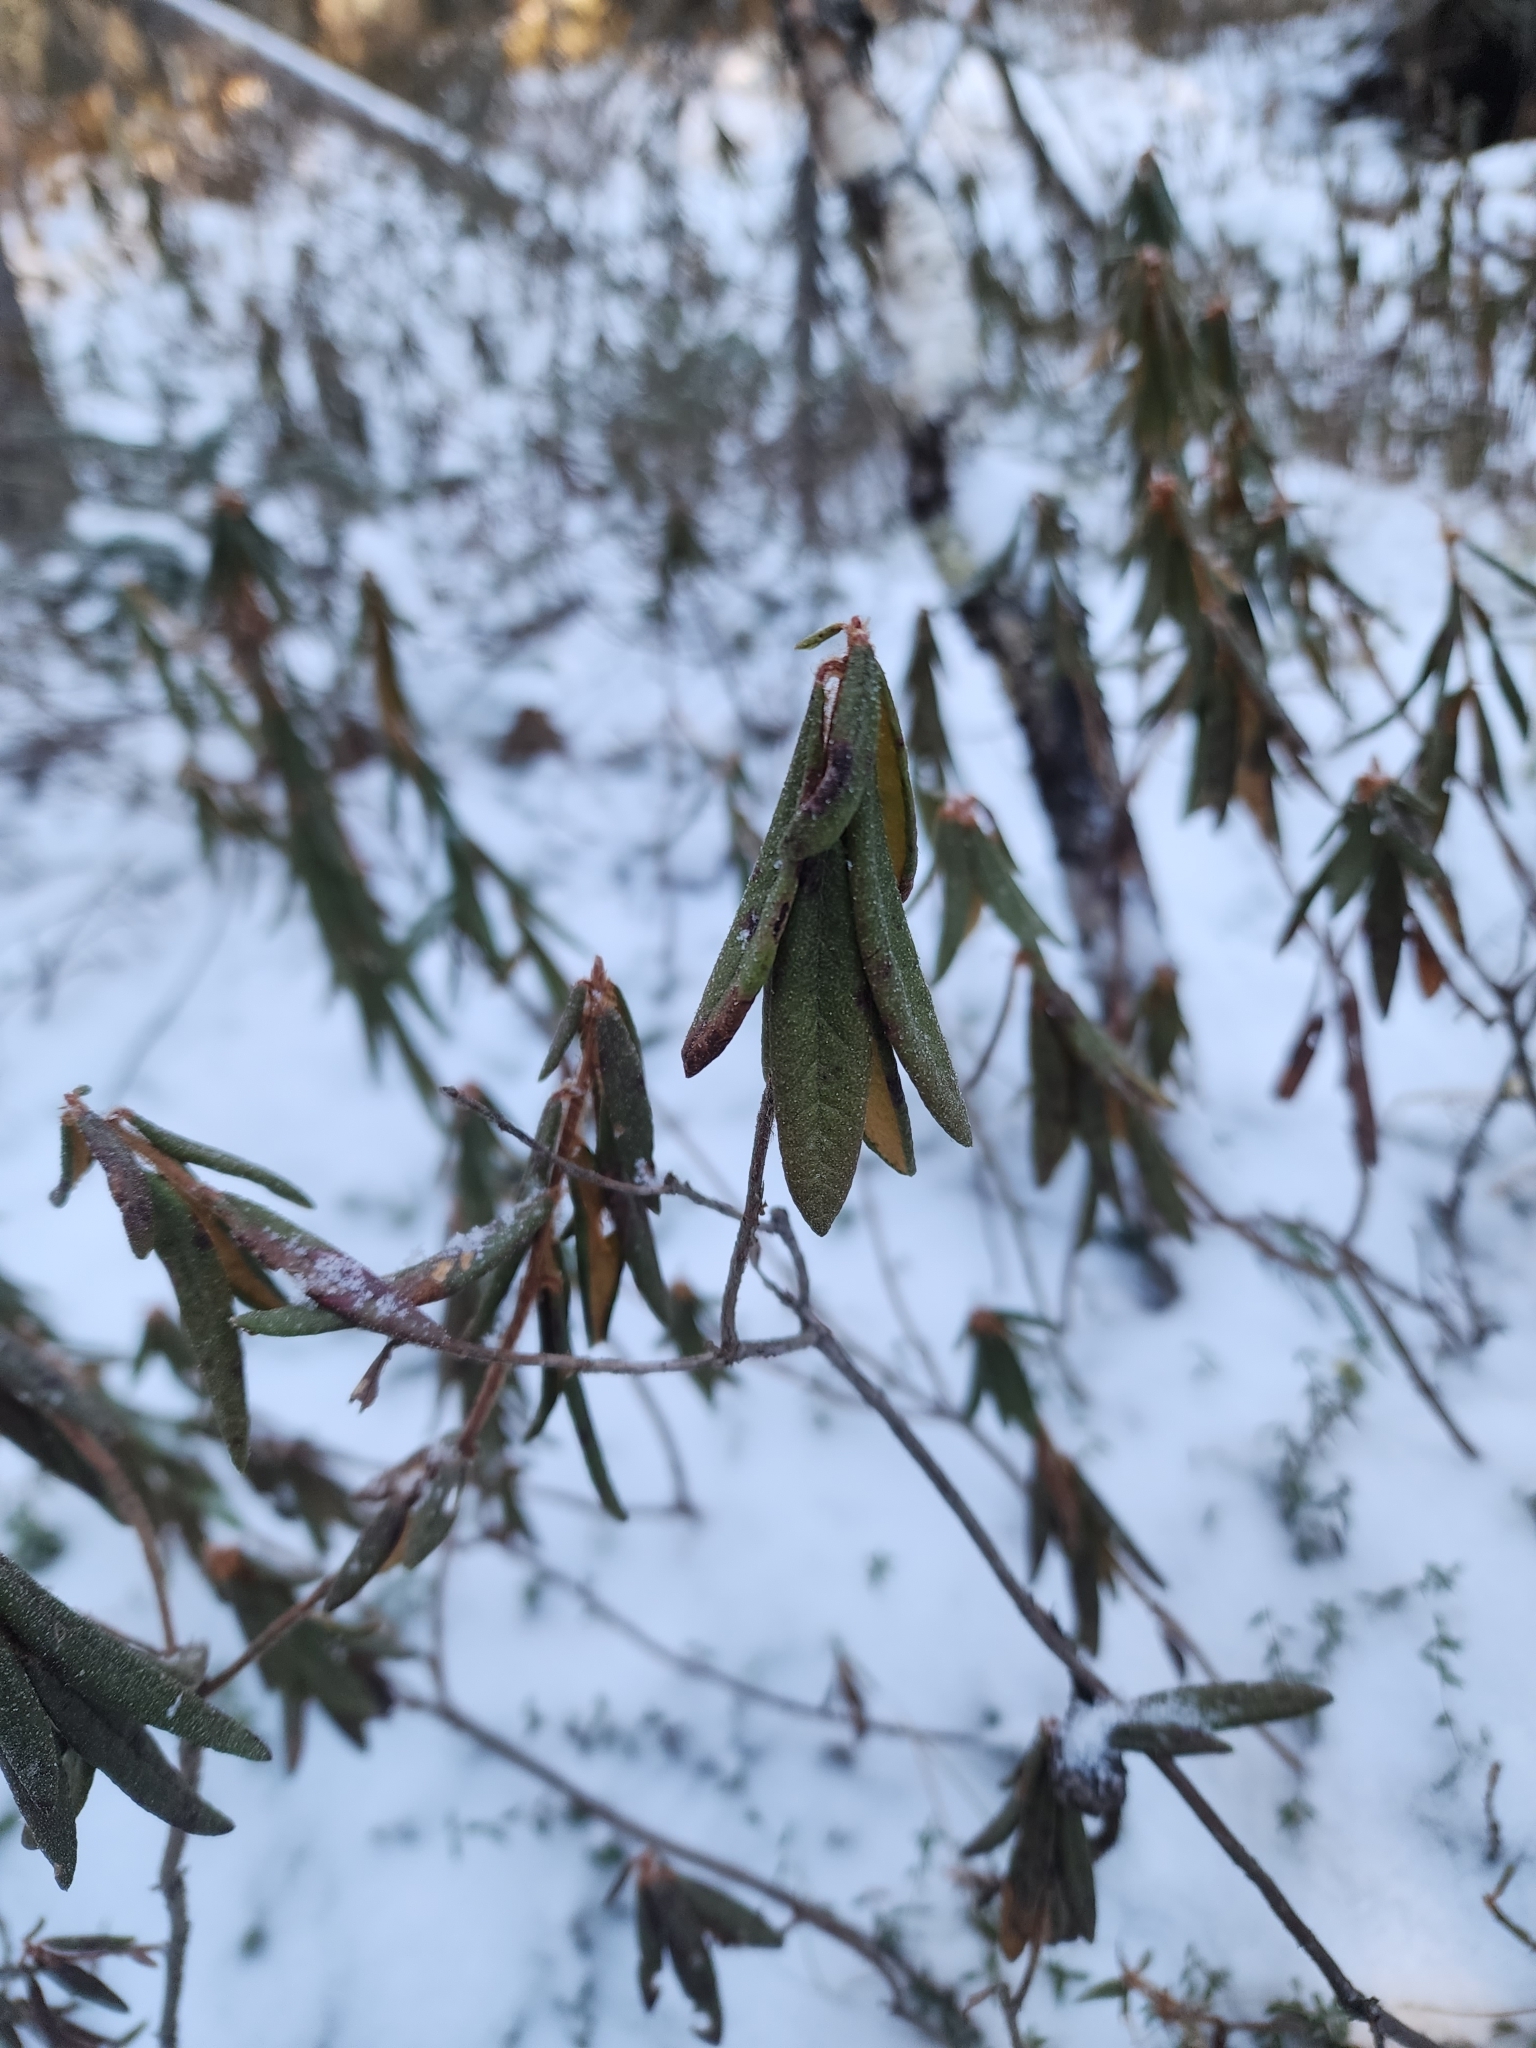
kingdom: Plantae
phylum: Tracheophyta
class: Magnoliopsida
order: Ericales
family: Ericaceae
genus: Rhododendron
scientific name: Rhododendron groenlandicum
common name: Bog labrador tea
